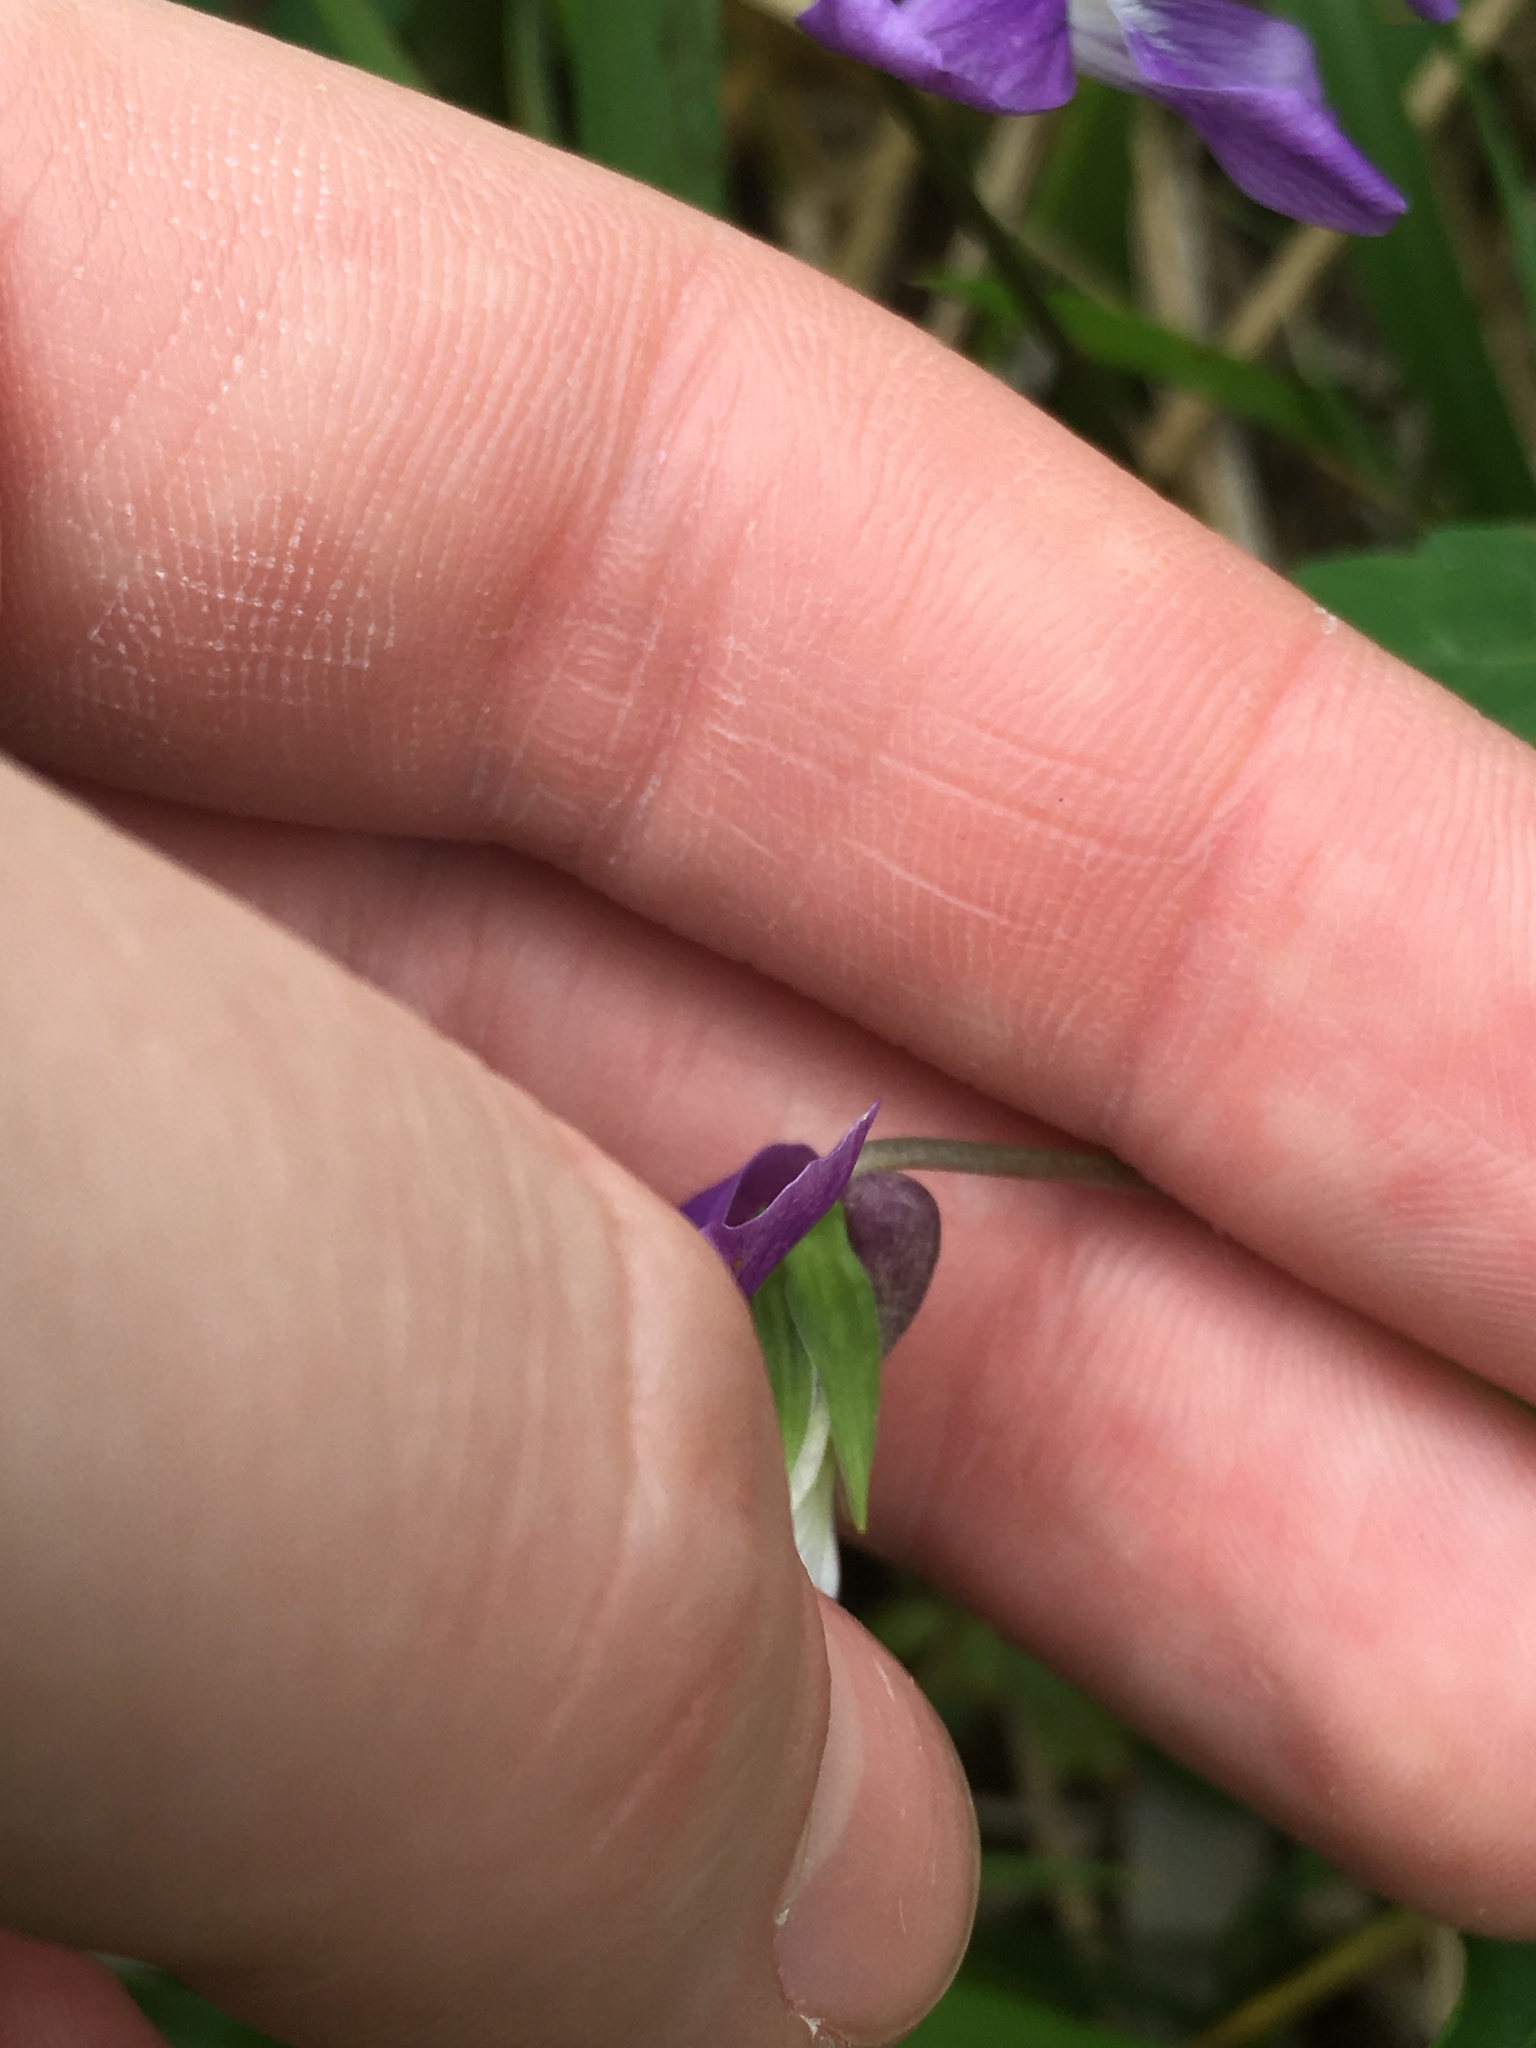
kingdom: Plantae
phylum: Tracheophyta
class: Magnoliopsida
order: Malpighiales
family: Violaceae
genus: Viola
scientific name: Viola brittoniana
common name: Northern coastal violet
